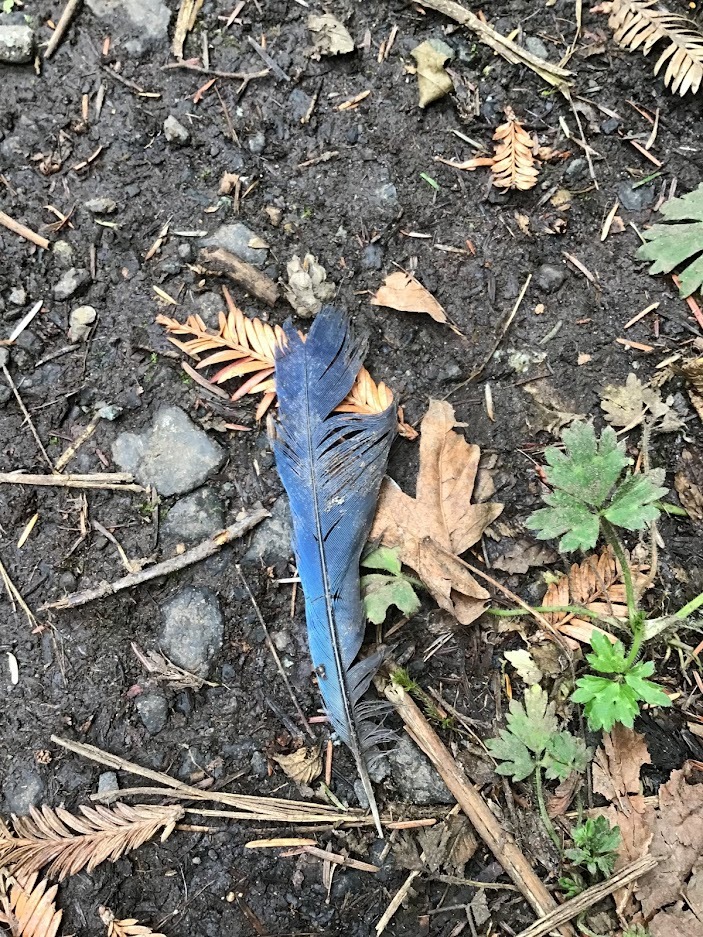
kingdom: Animalia
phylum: Chordata
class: Aves
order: Passeriformes
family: Corvidae
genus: Cyanocitta
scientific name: Cyanocitta stelleri
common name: Steller's jay
